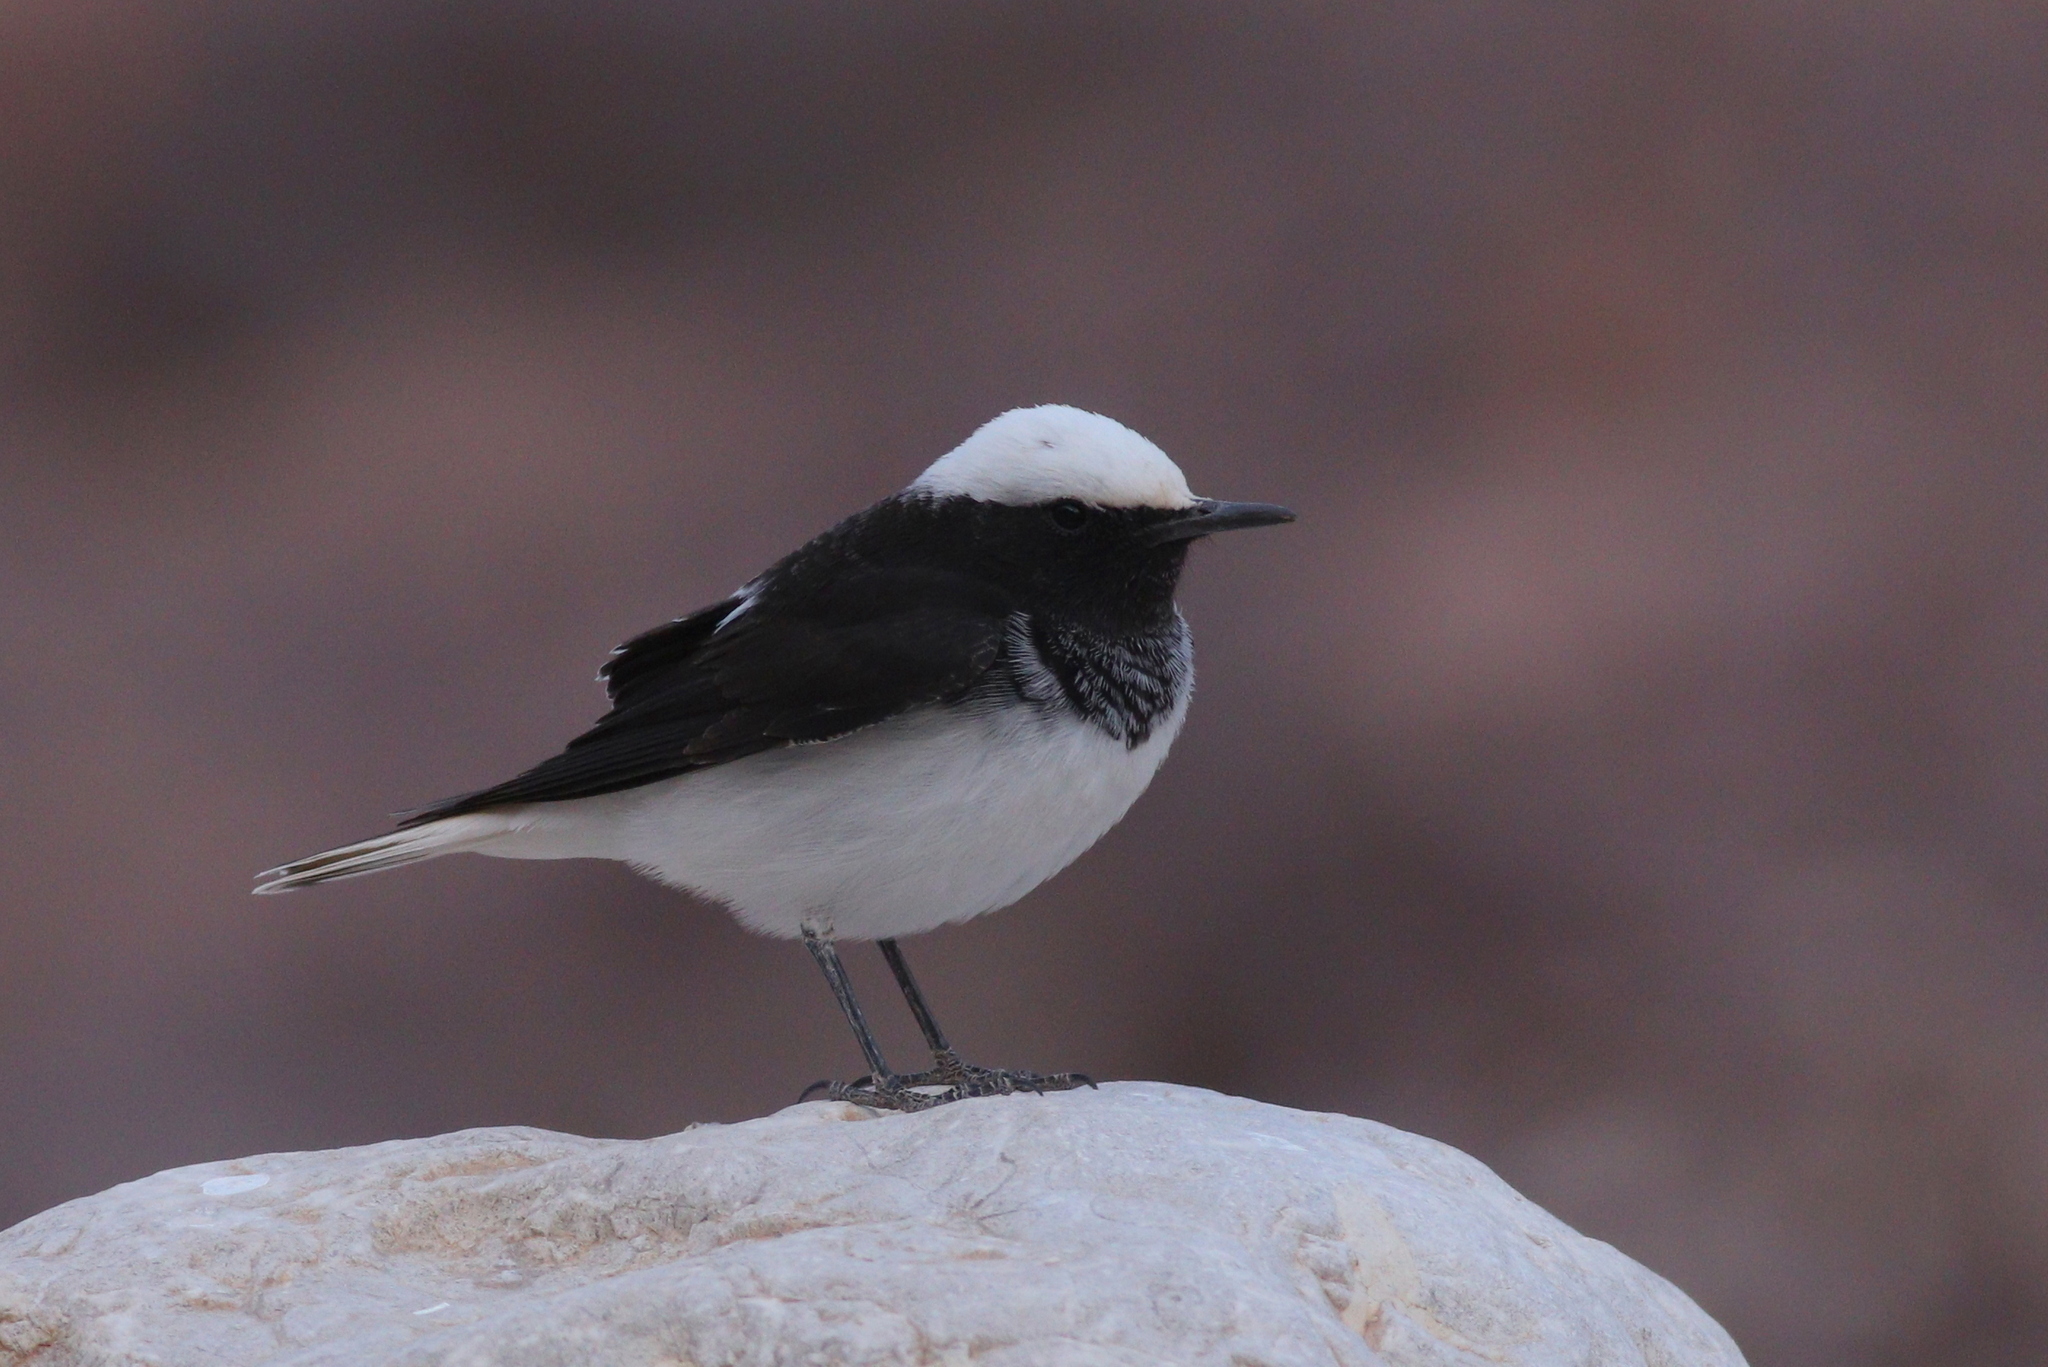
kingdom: Animalia
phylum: Chordata
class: Aves
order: Passeriformes
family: Muscicapidae
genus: Oenanthe
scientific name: Oenanthe monacha
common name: Hooded wheatear
